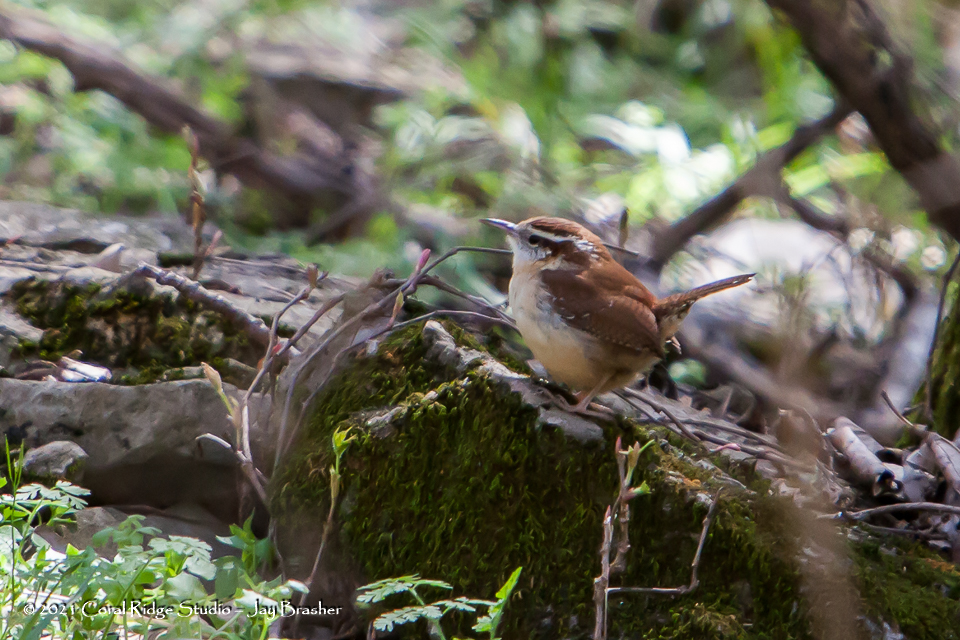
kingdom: Animalia
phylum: Chordata
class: Aves
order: Passeriformes
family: Troglodytidae
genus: Thryothorus
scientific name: Thryothorus ludovicianus
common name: Carolina wren
